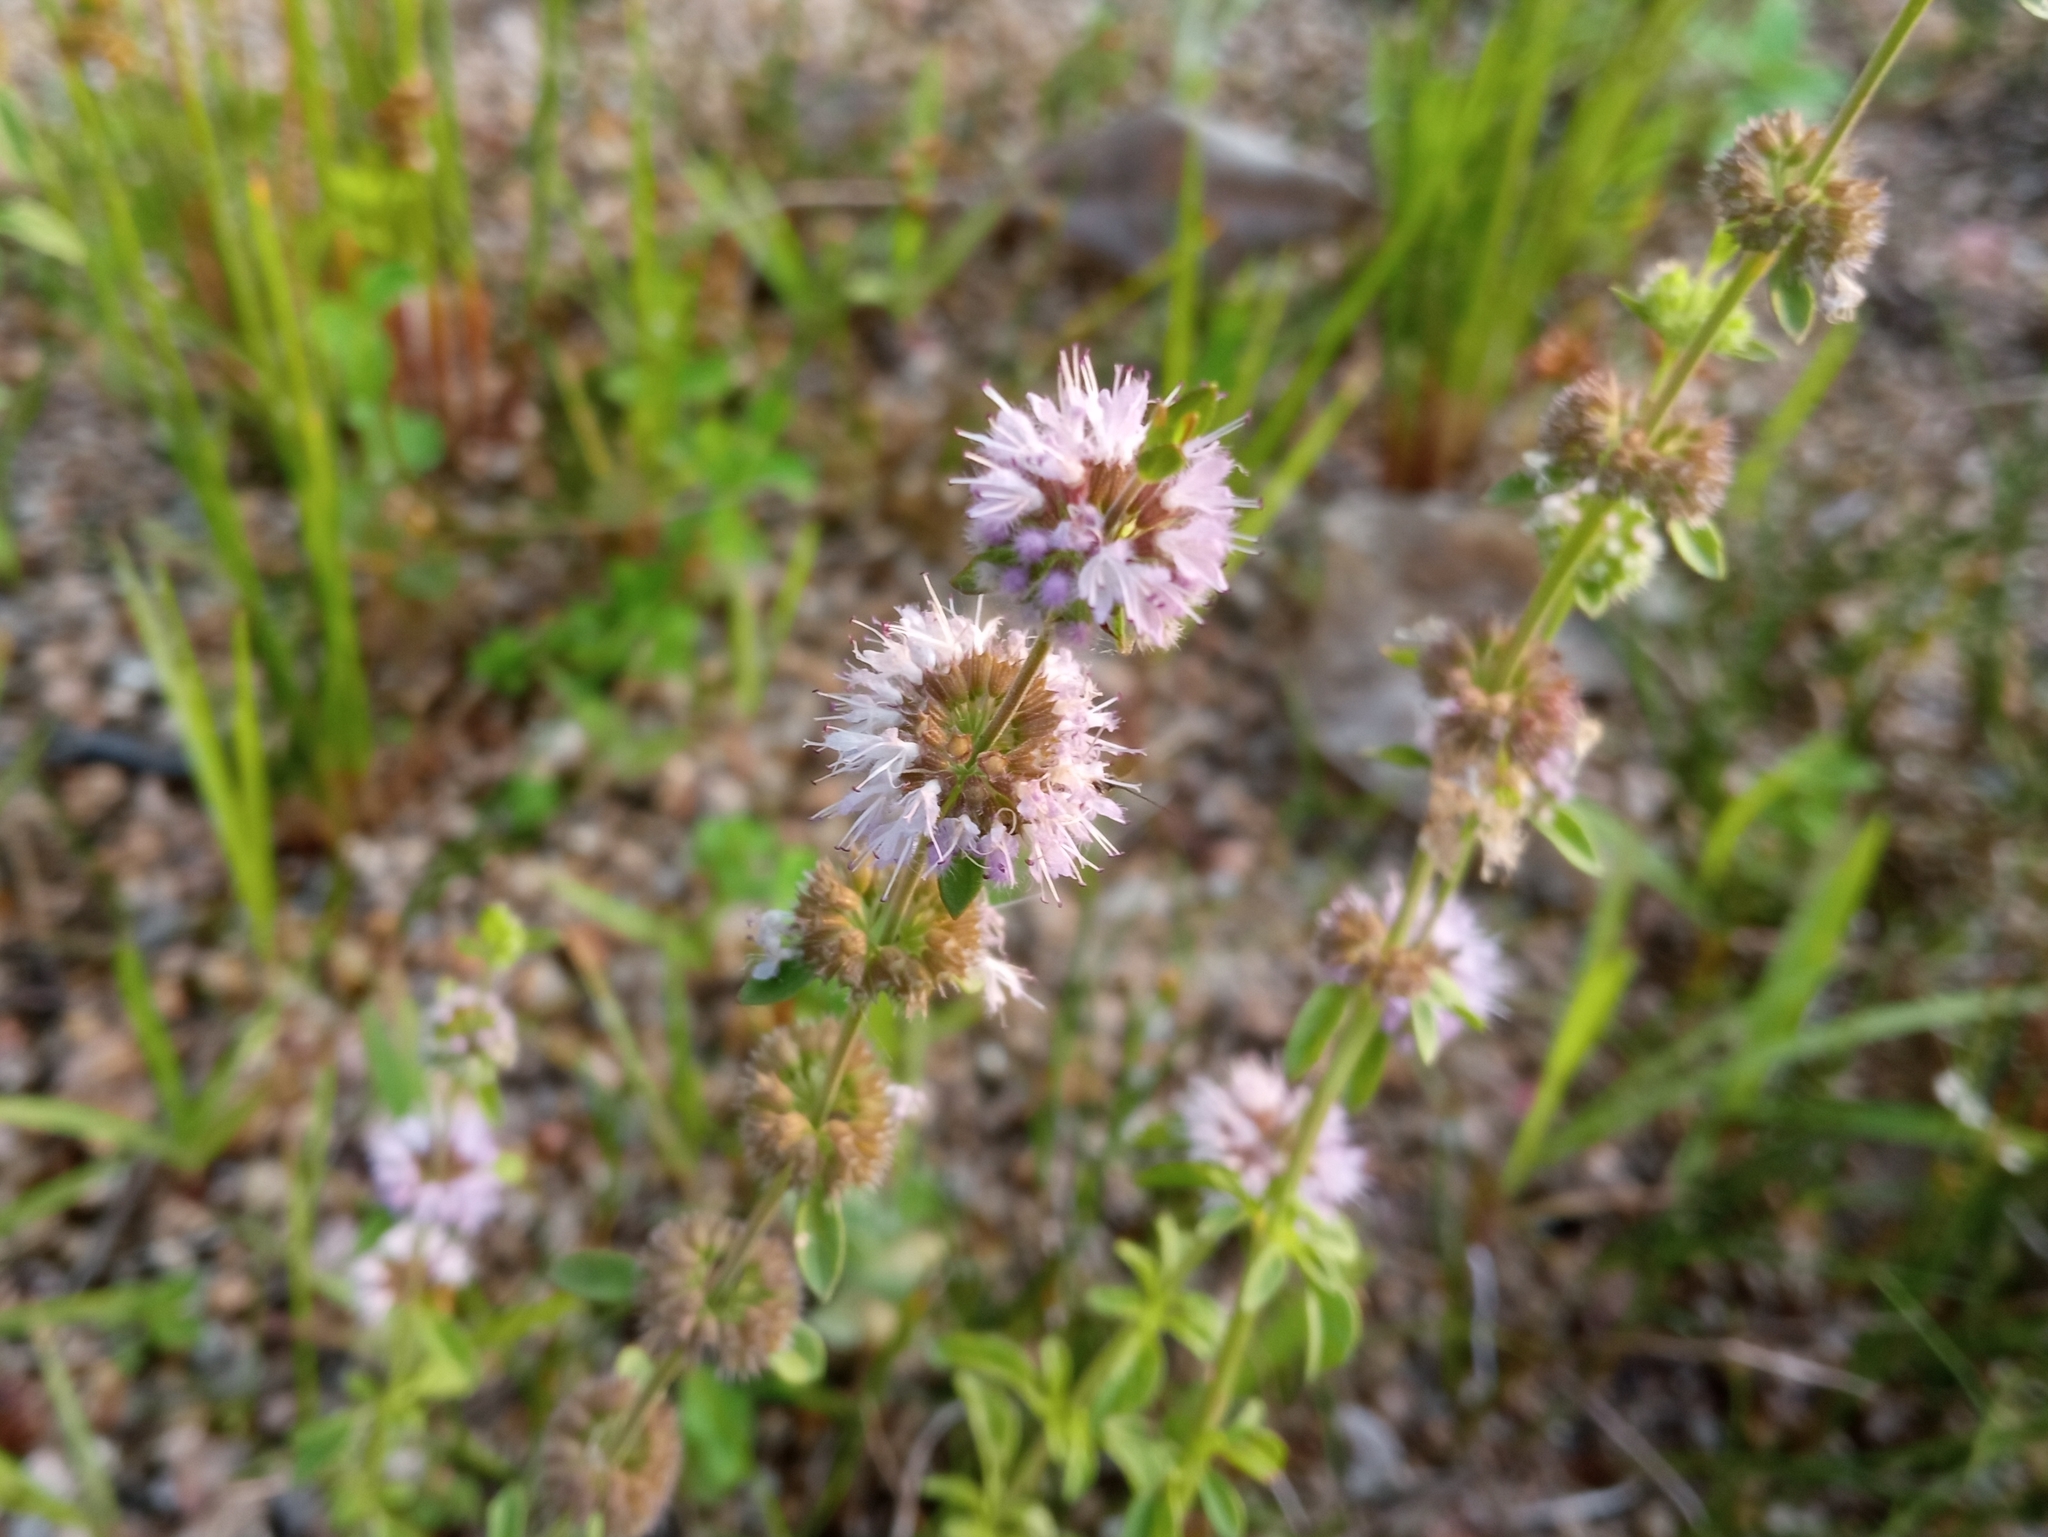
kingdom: Plantae
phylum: Tracheophyta
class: Magnoliopsida
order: Lamiales
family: Lamiaceae
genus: Mentha
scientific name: Mentha pulegium
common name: Pennyroyal
